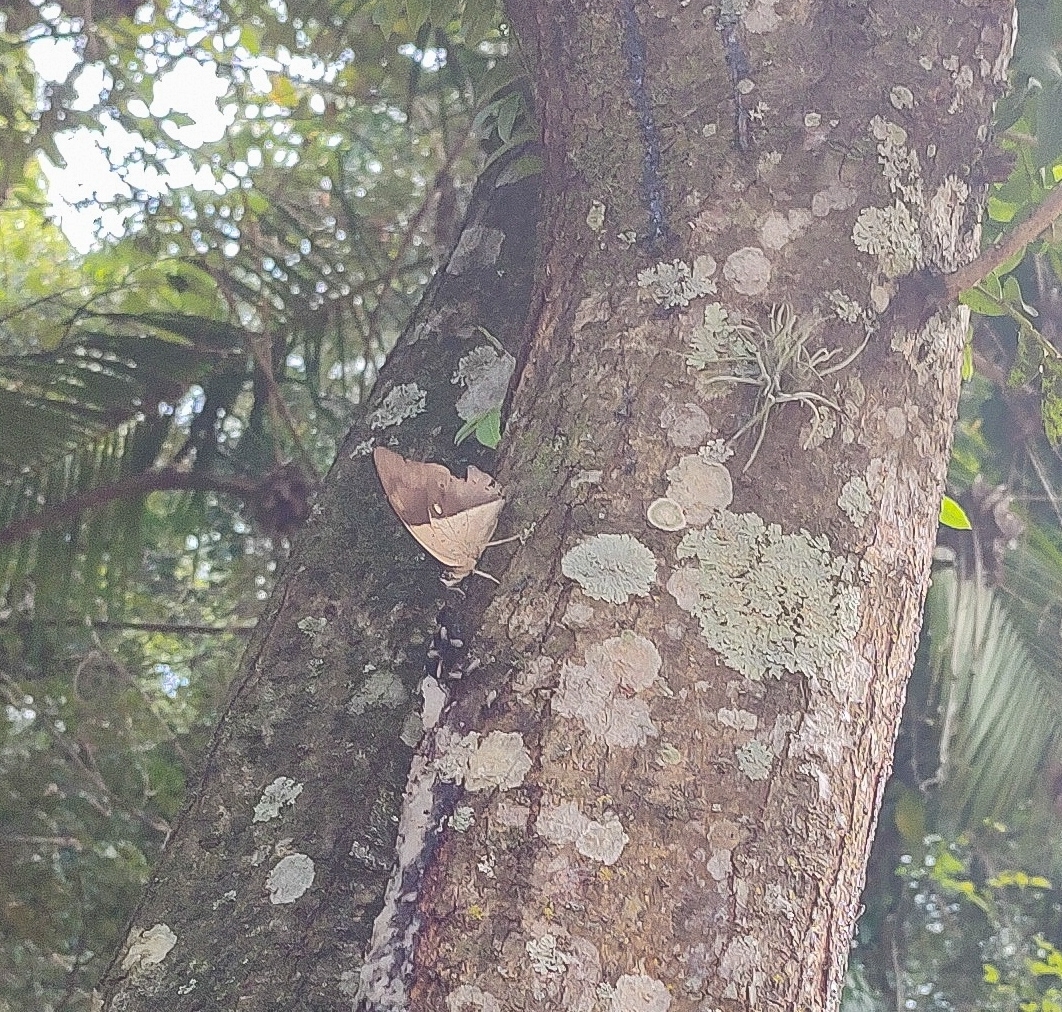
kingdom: Animalia
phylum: Arthropoda
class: Insecta
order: Lepidoptera
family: Nymphalidae
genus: Prepona
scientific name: Prepona meander
